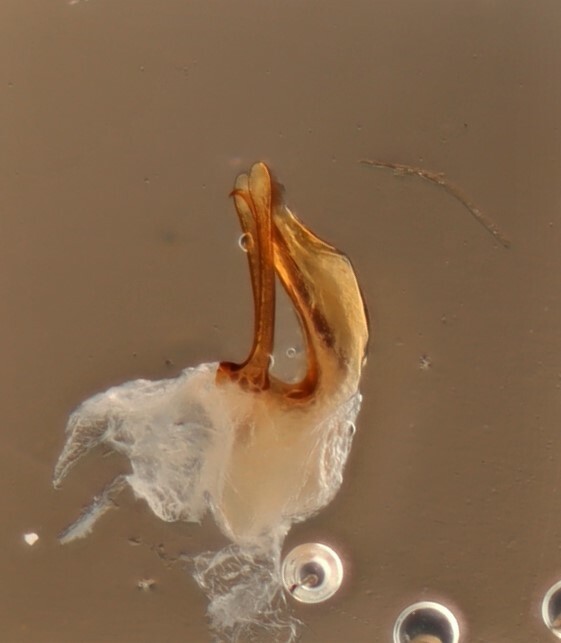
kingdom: Animalia
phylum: Arthropoda
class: Insecta
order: Coleoptera
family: Staphylinidae
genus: Scaphisoma
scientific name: Scaphisoma americanum
